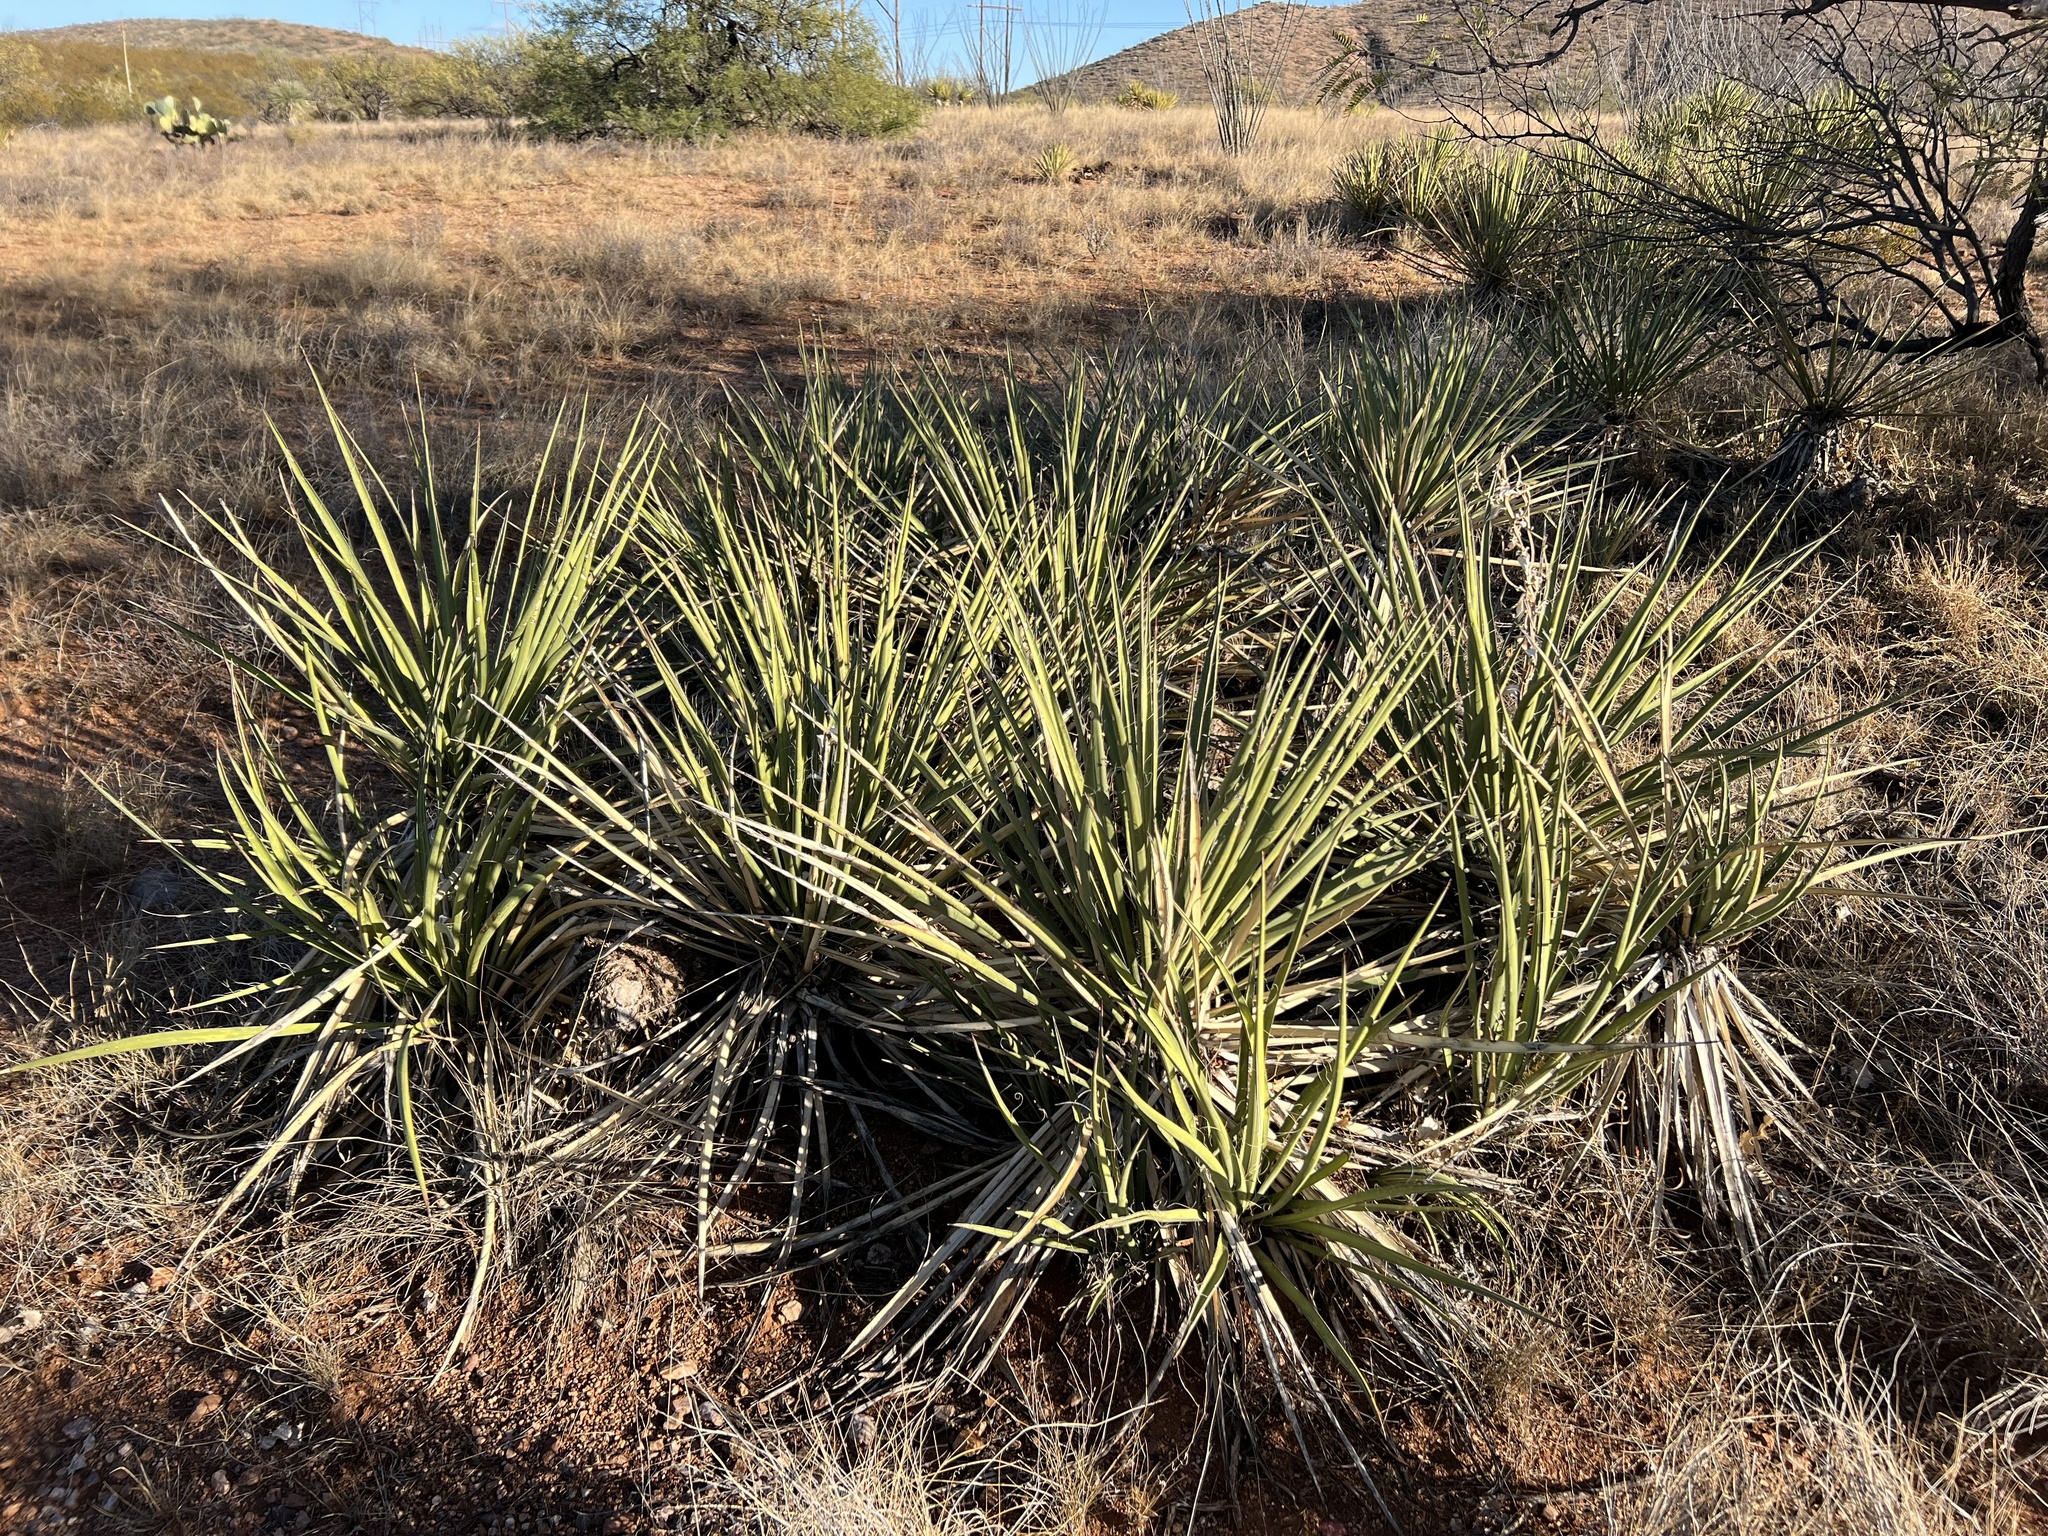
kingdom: Plantae
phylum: Tracheophyta
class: Liliopsida
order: Asparagales
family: Asparagaceae
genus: Yucca
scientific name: Yucca baccata
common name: Banana yucca
